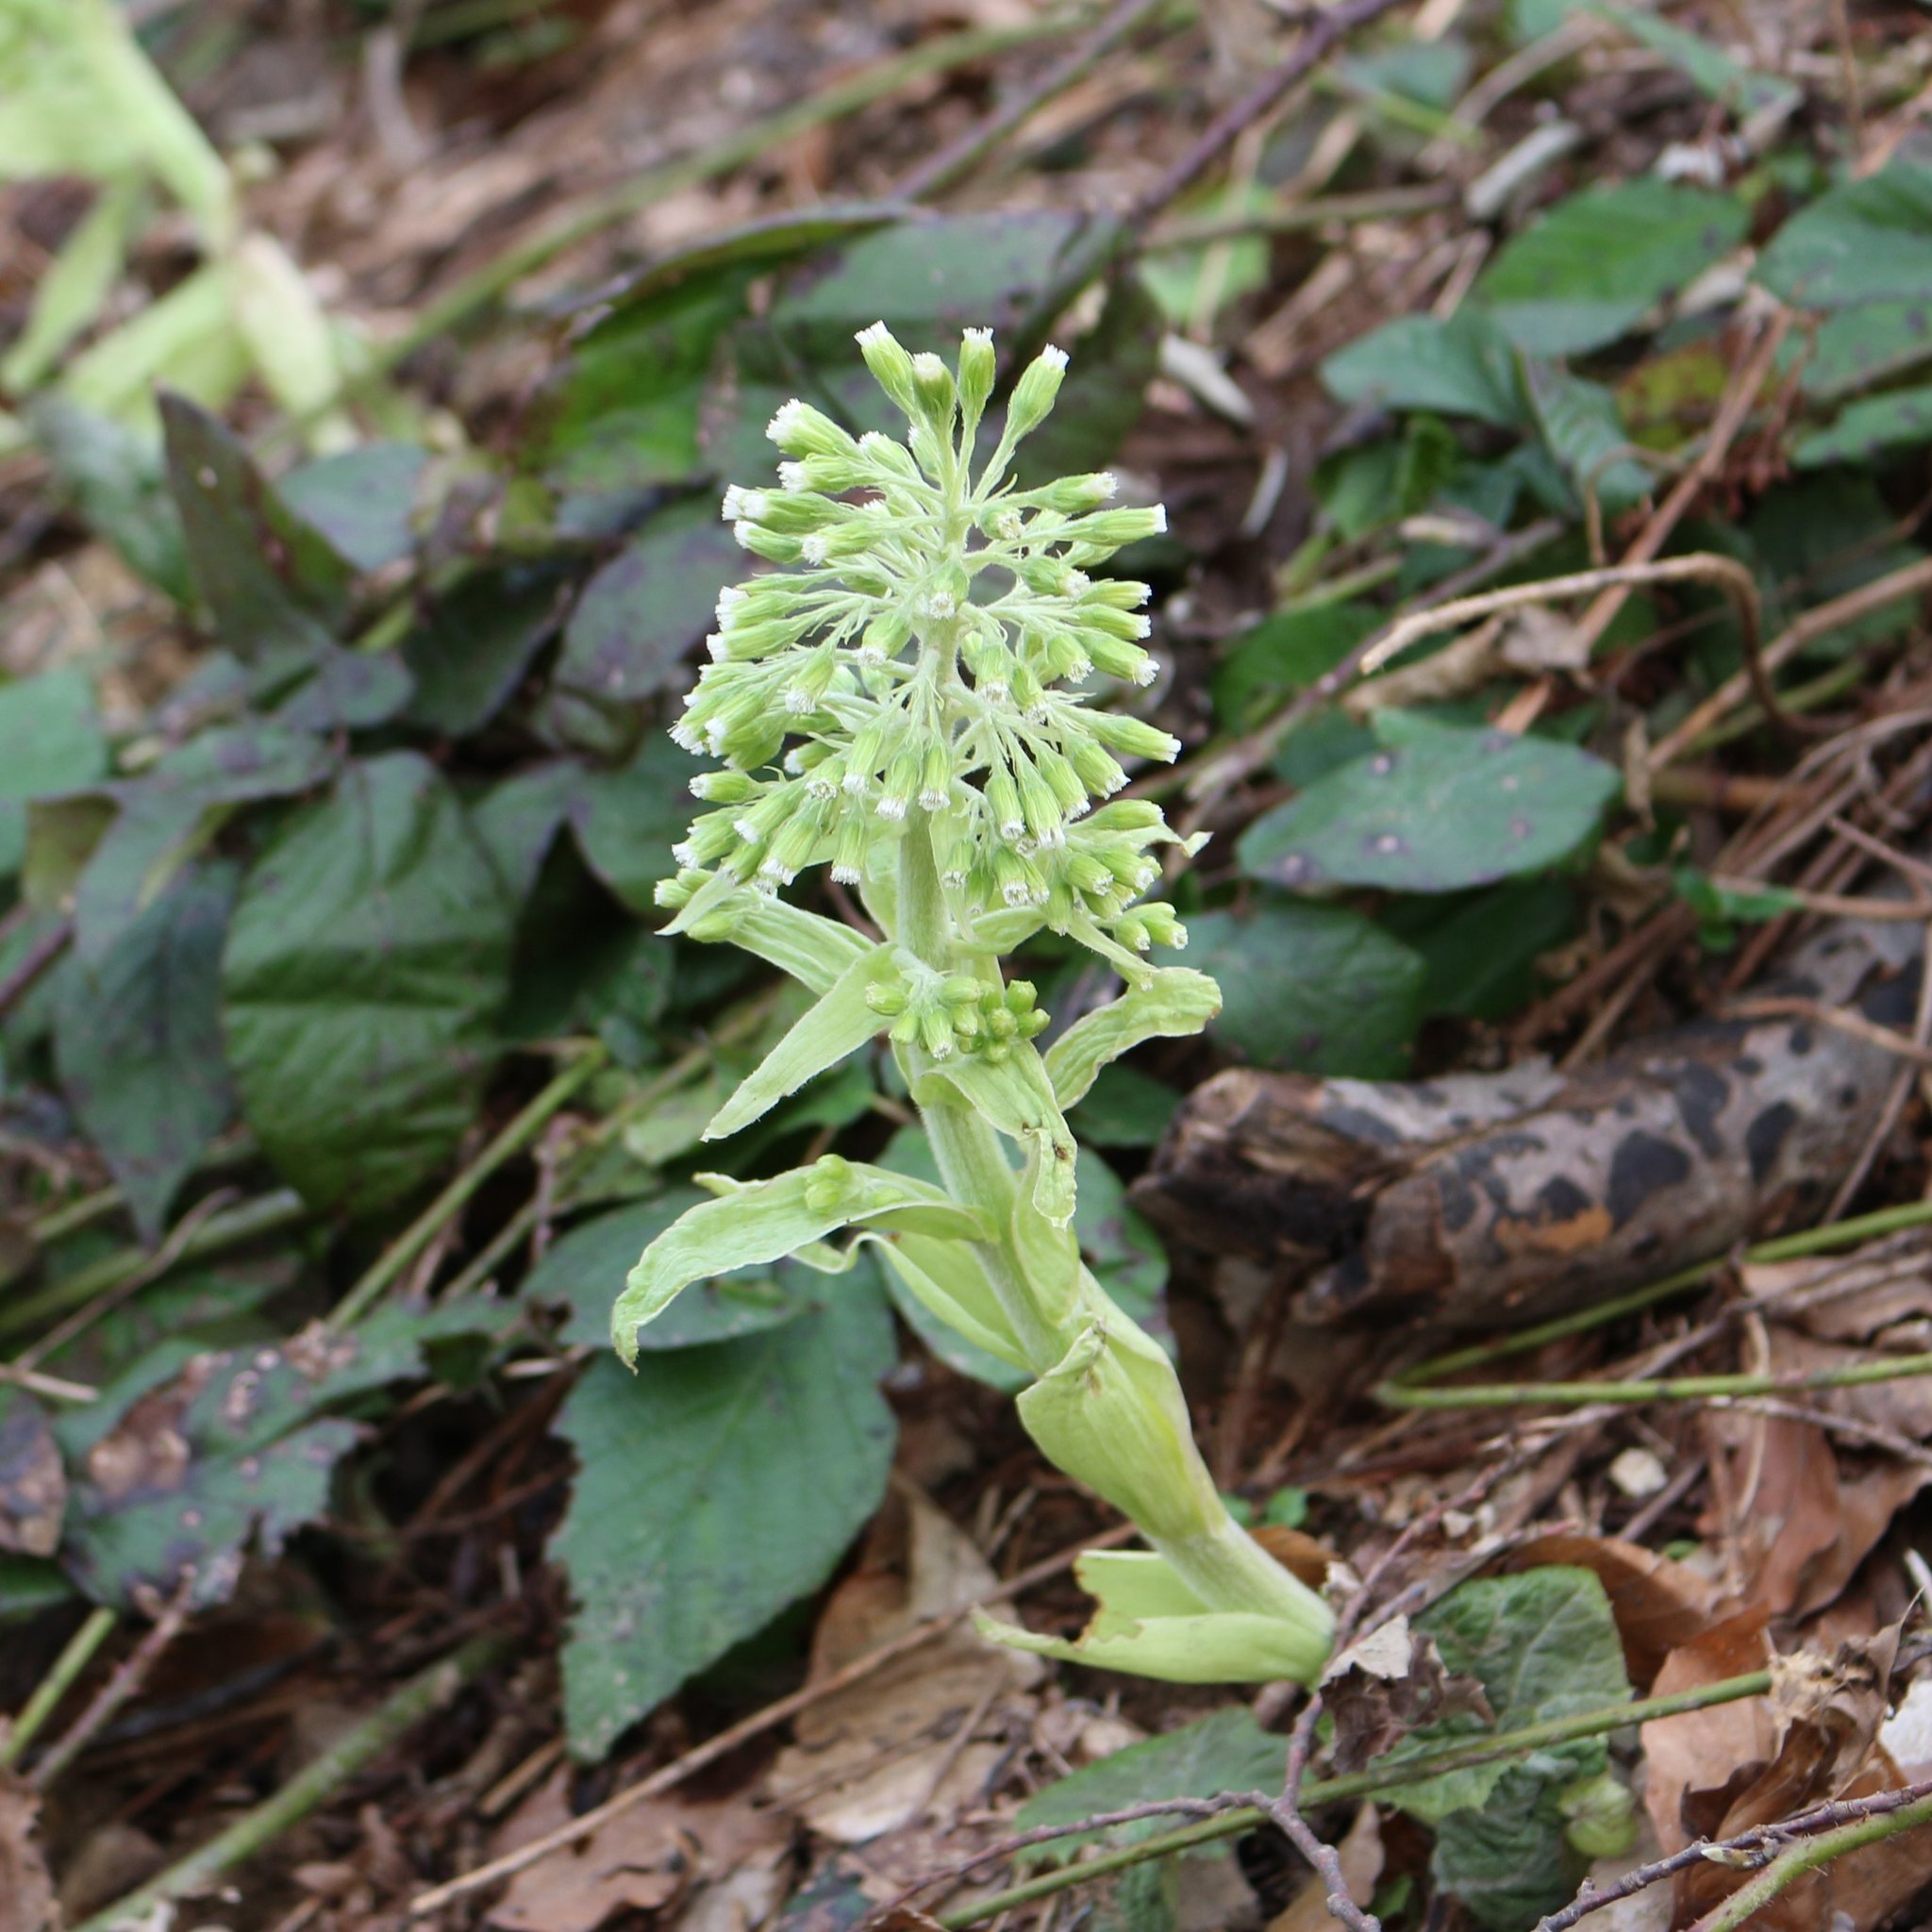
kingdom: Plantae
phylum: Tracheophyta
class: Magnoliopsida
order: Asterales
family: Asteraceae
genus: Petasites
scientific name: Petasites albus
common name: White butterbur
